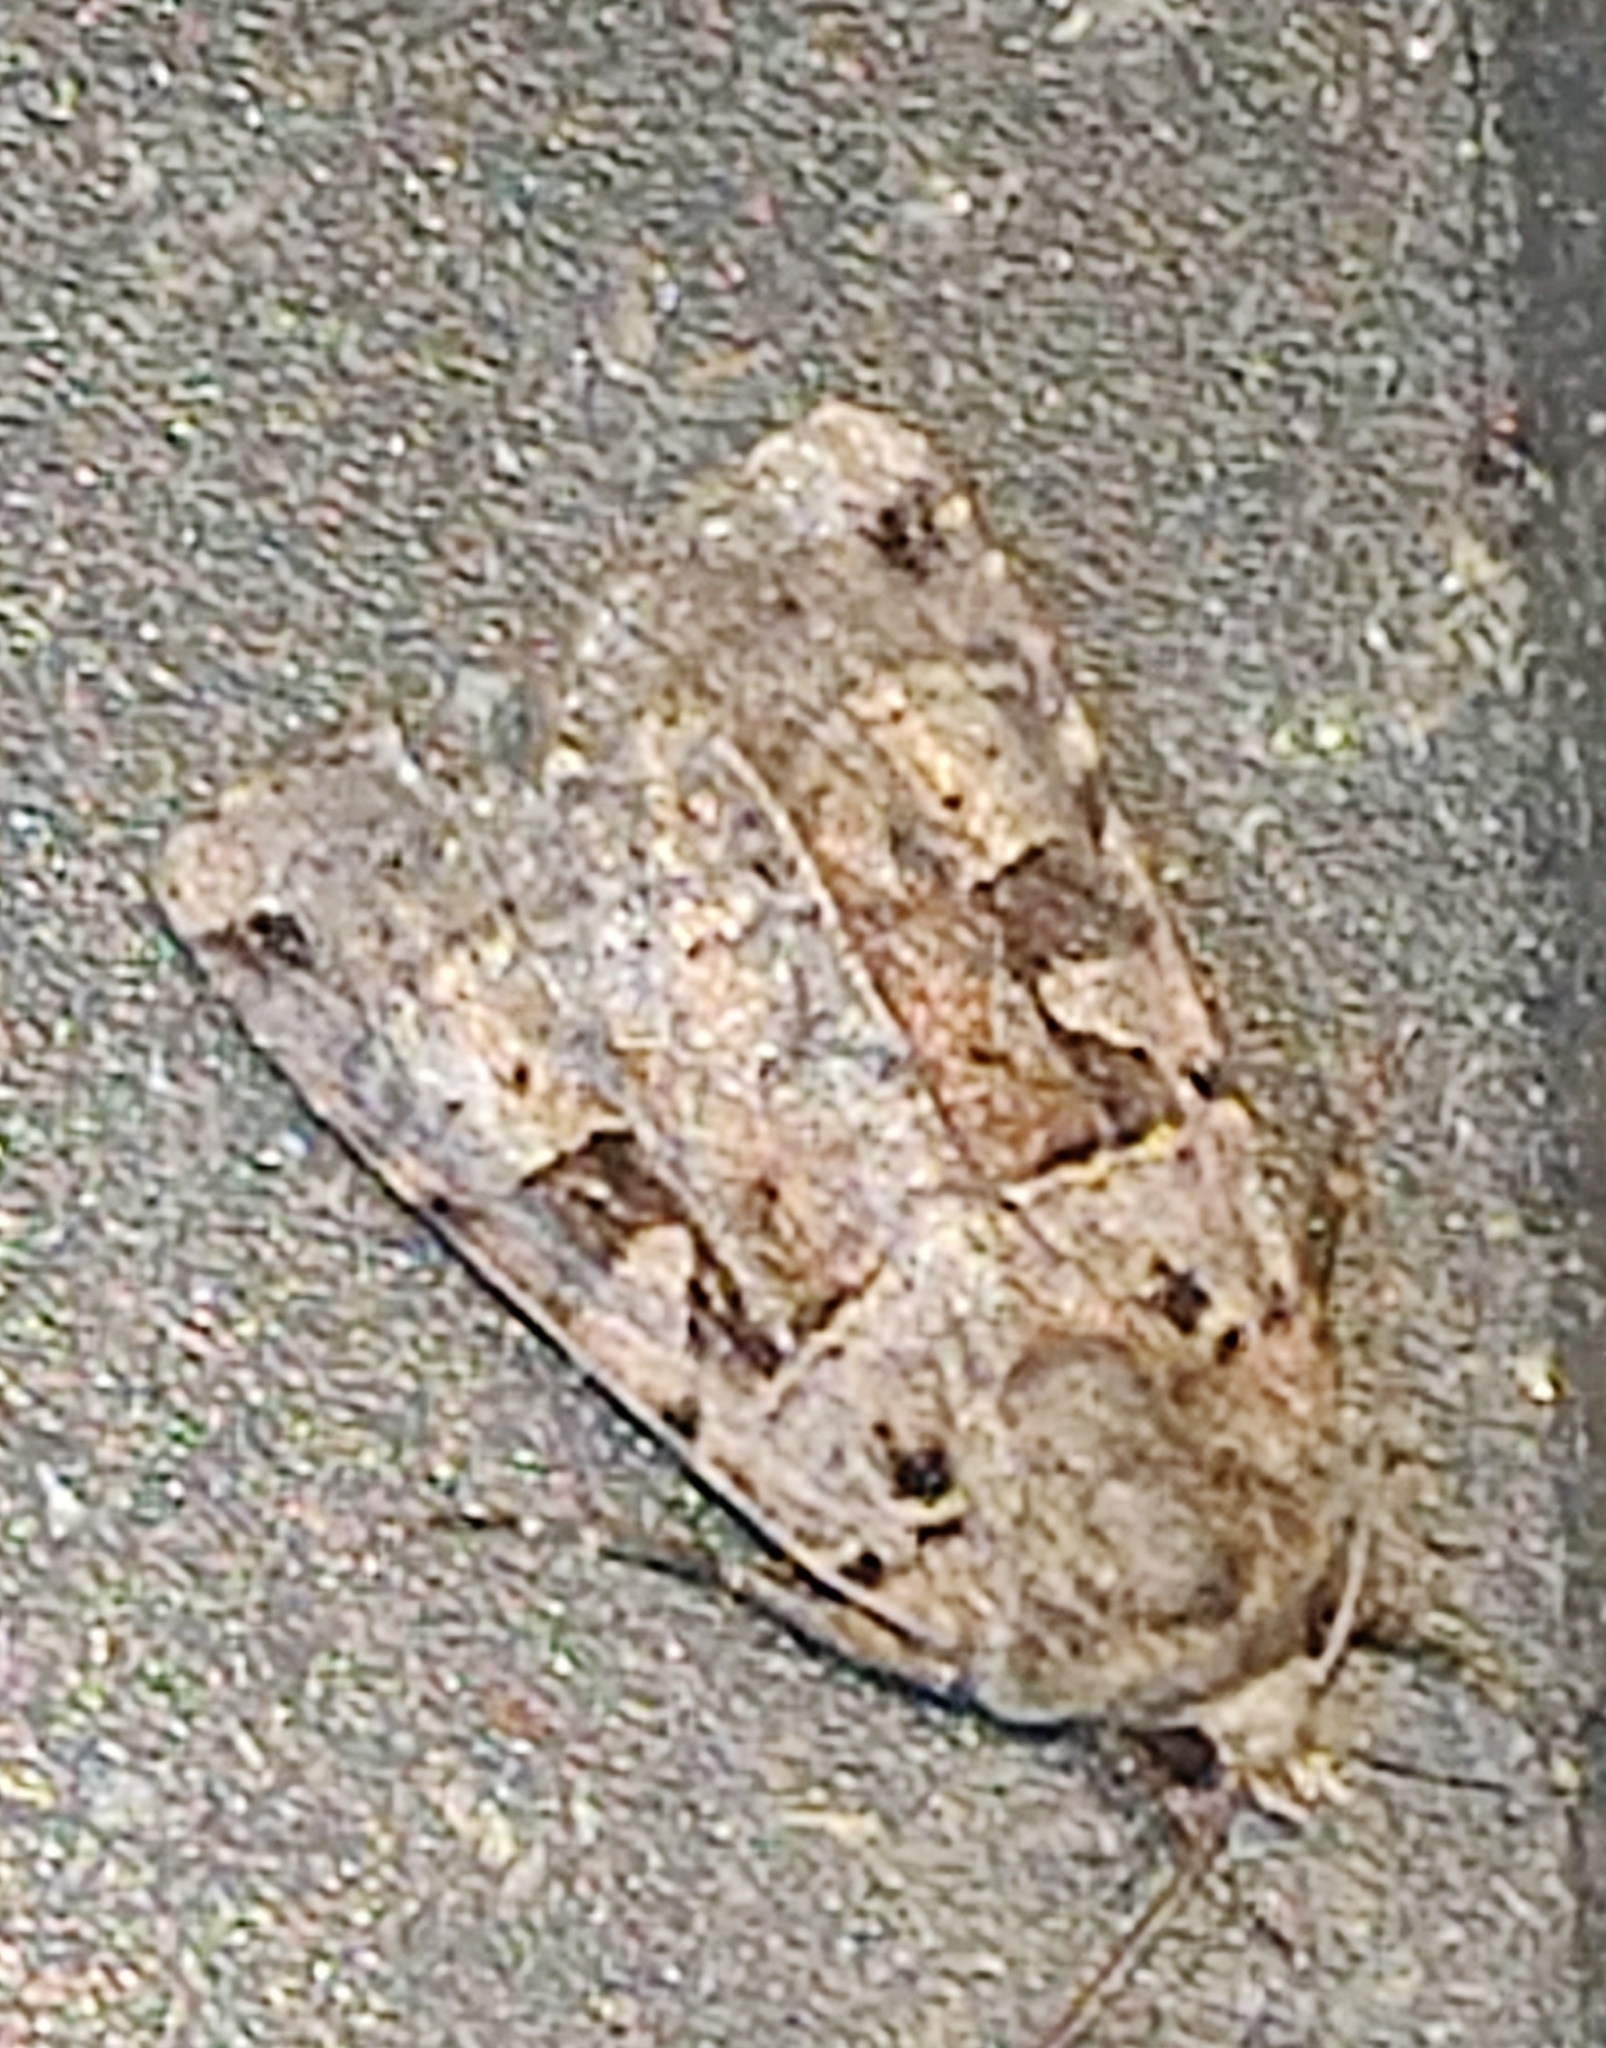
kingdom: Animalia
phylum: Arthropoda
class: Insecta
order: Lepidoptera
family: Noctuidae
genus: Xestia
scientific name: Xestia triangulum
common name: Double square-spot
